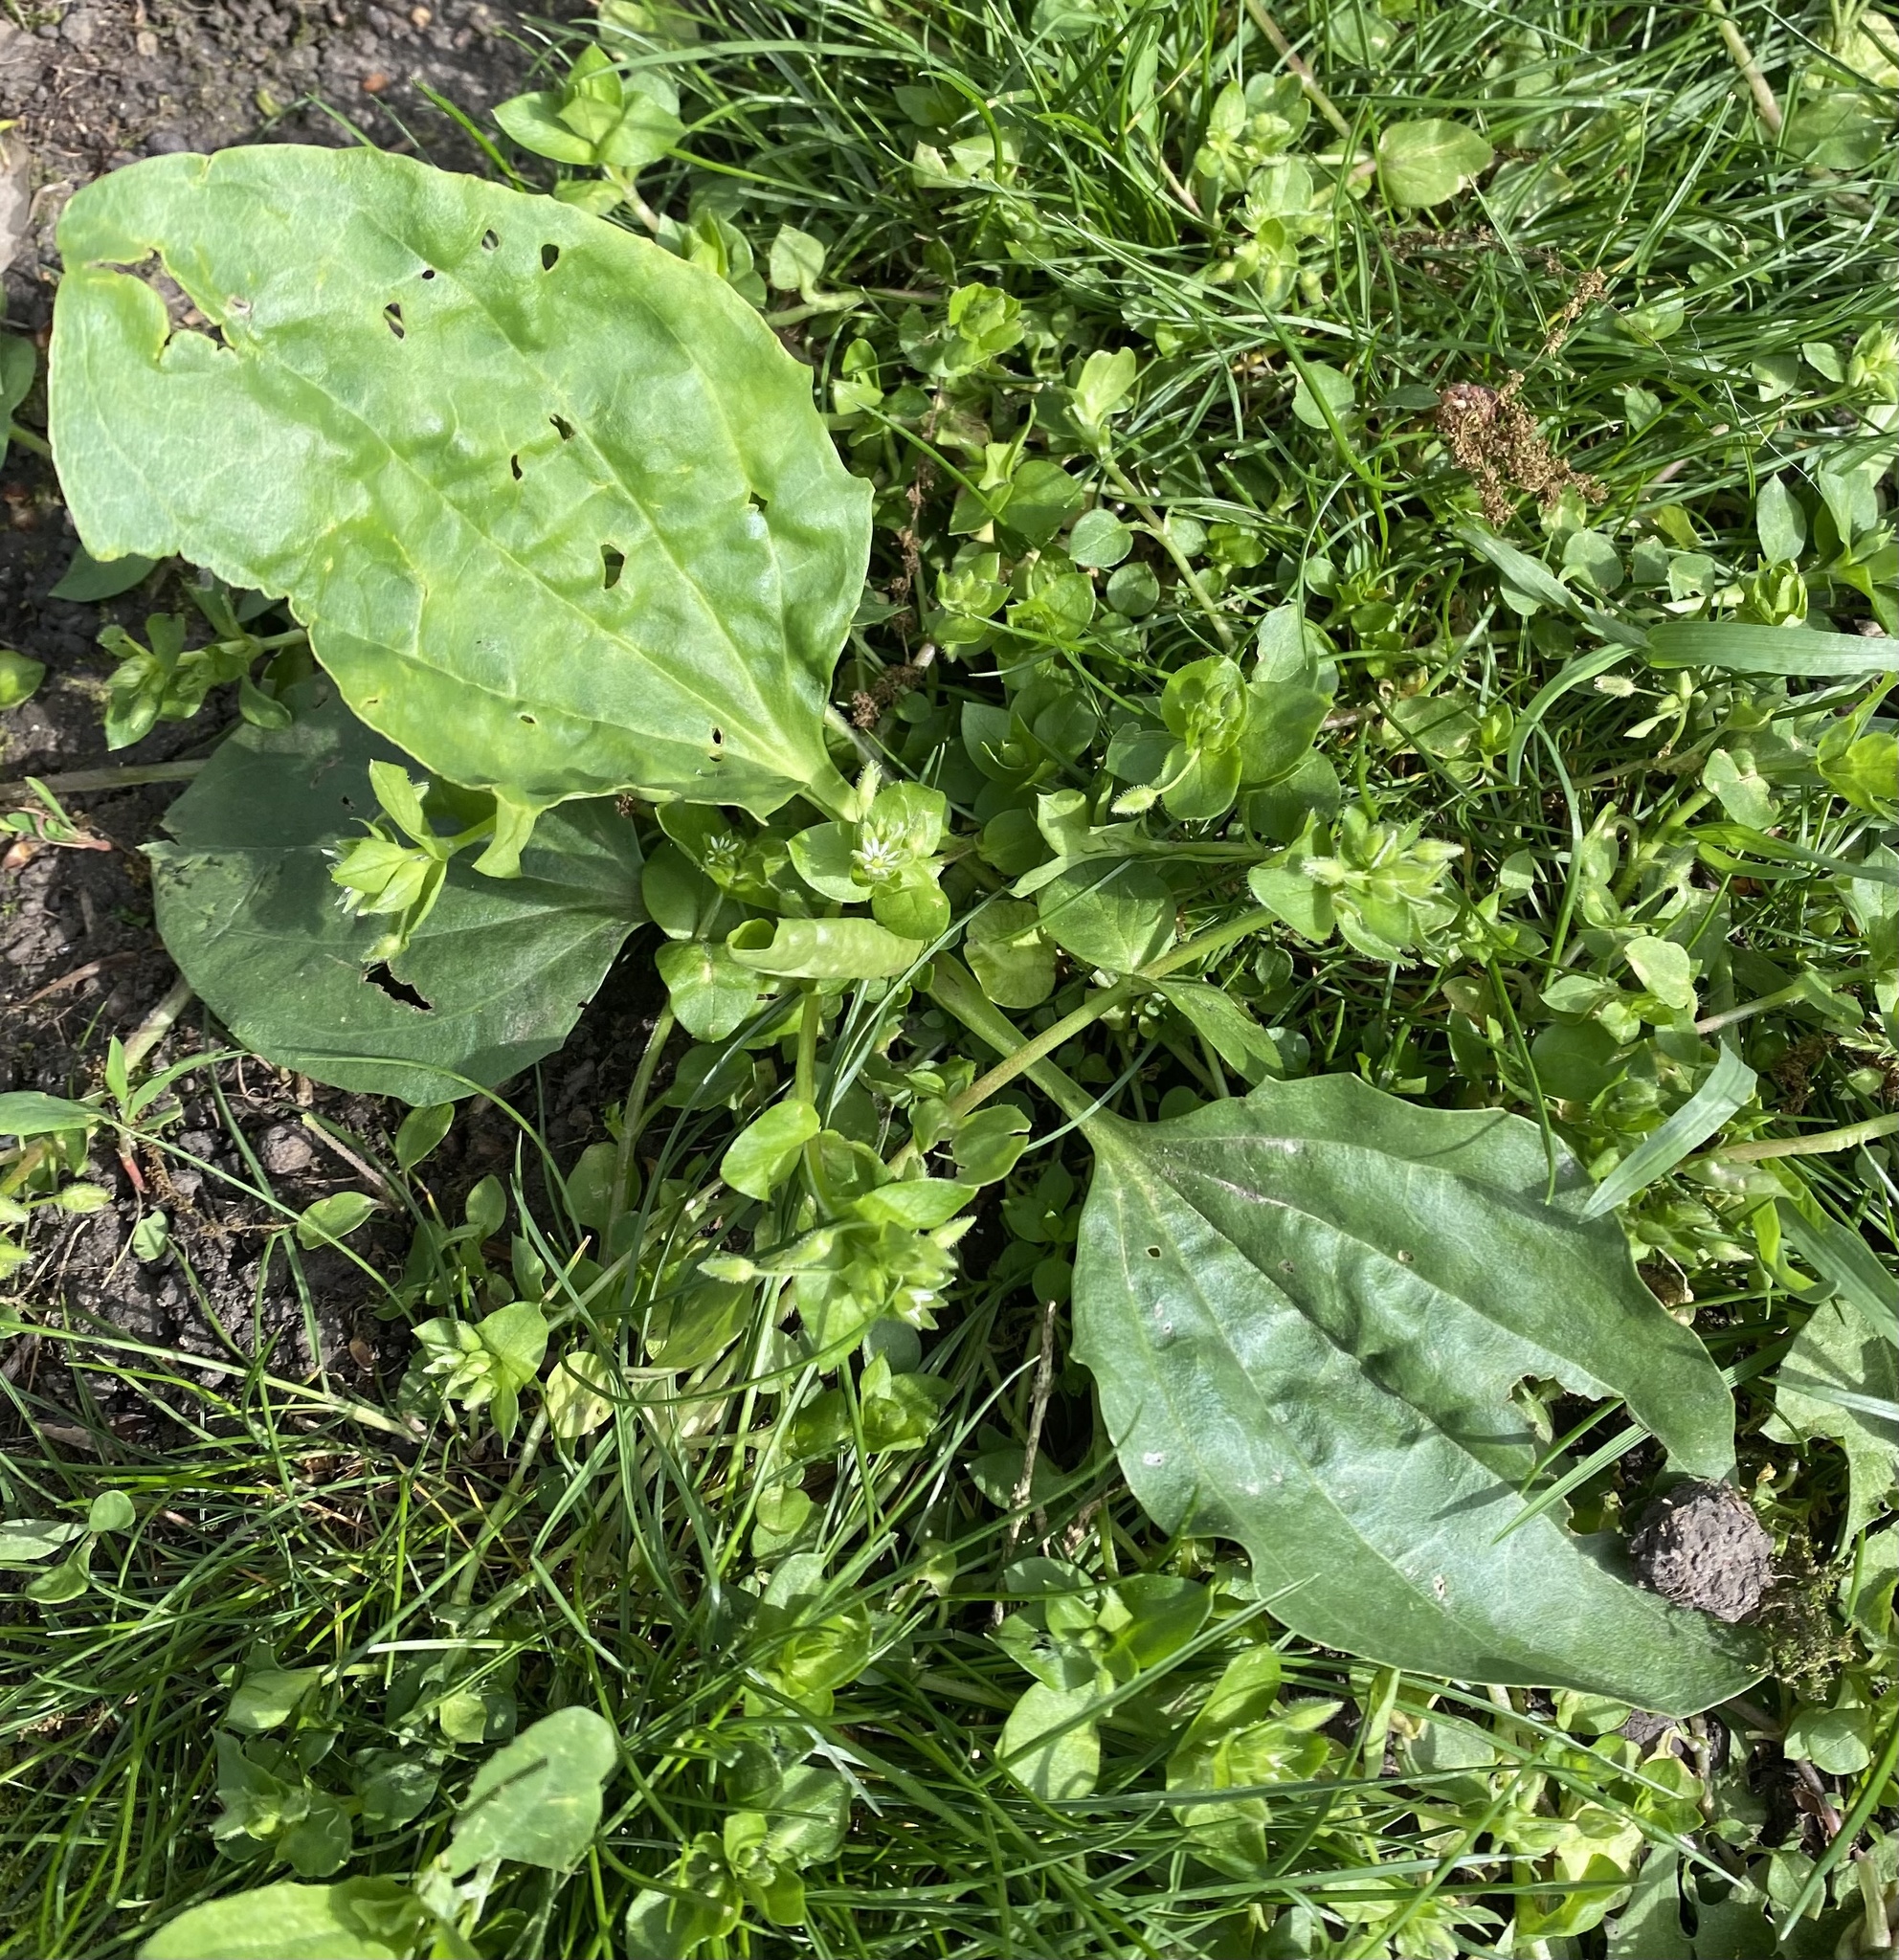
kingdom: Plantae
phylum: Tracheophyta
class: Magnoliopsida
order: Lamiales
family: Plantaginaceae
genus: Plantago
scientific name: Plantago major
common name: Common plantain
